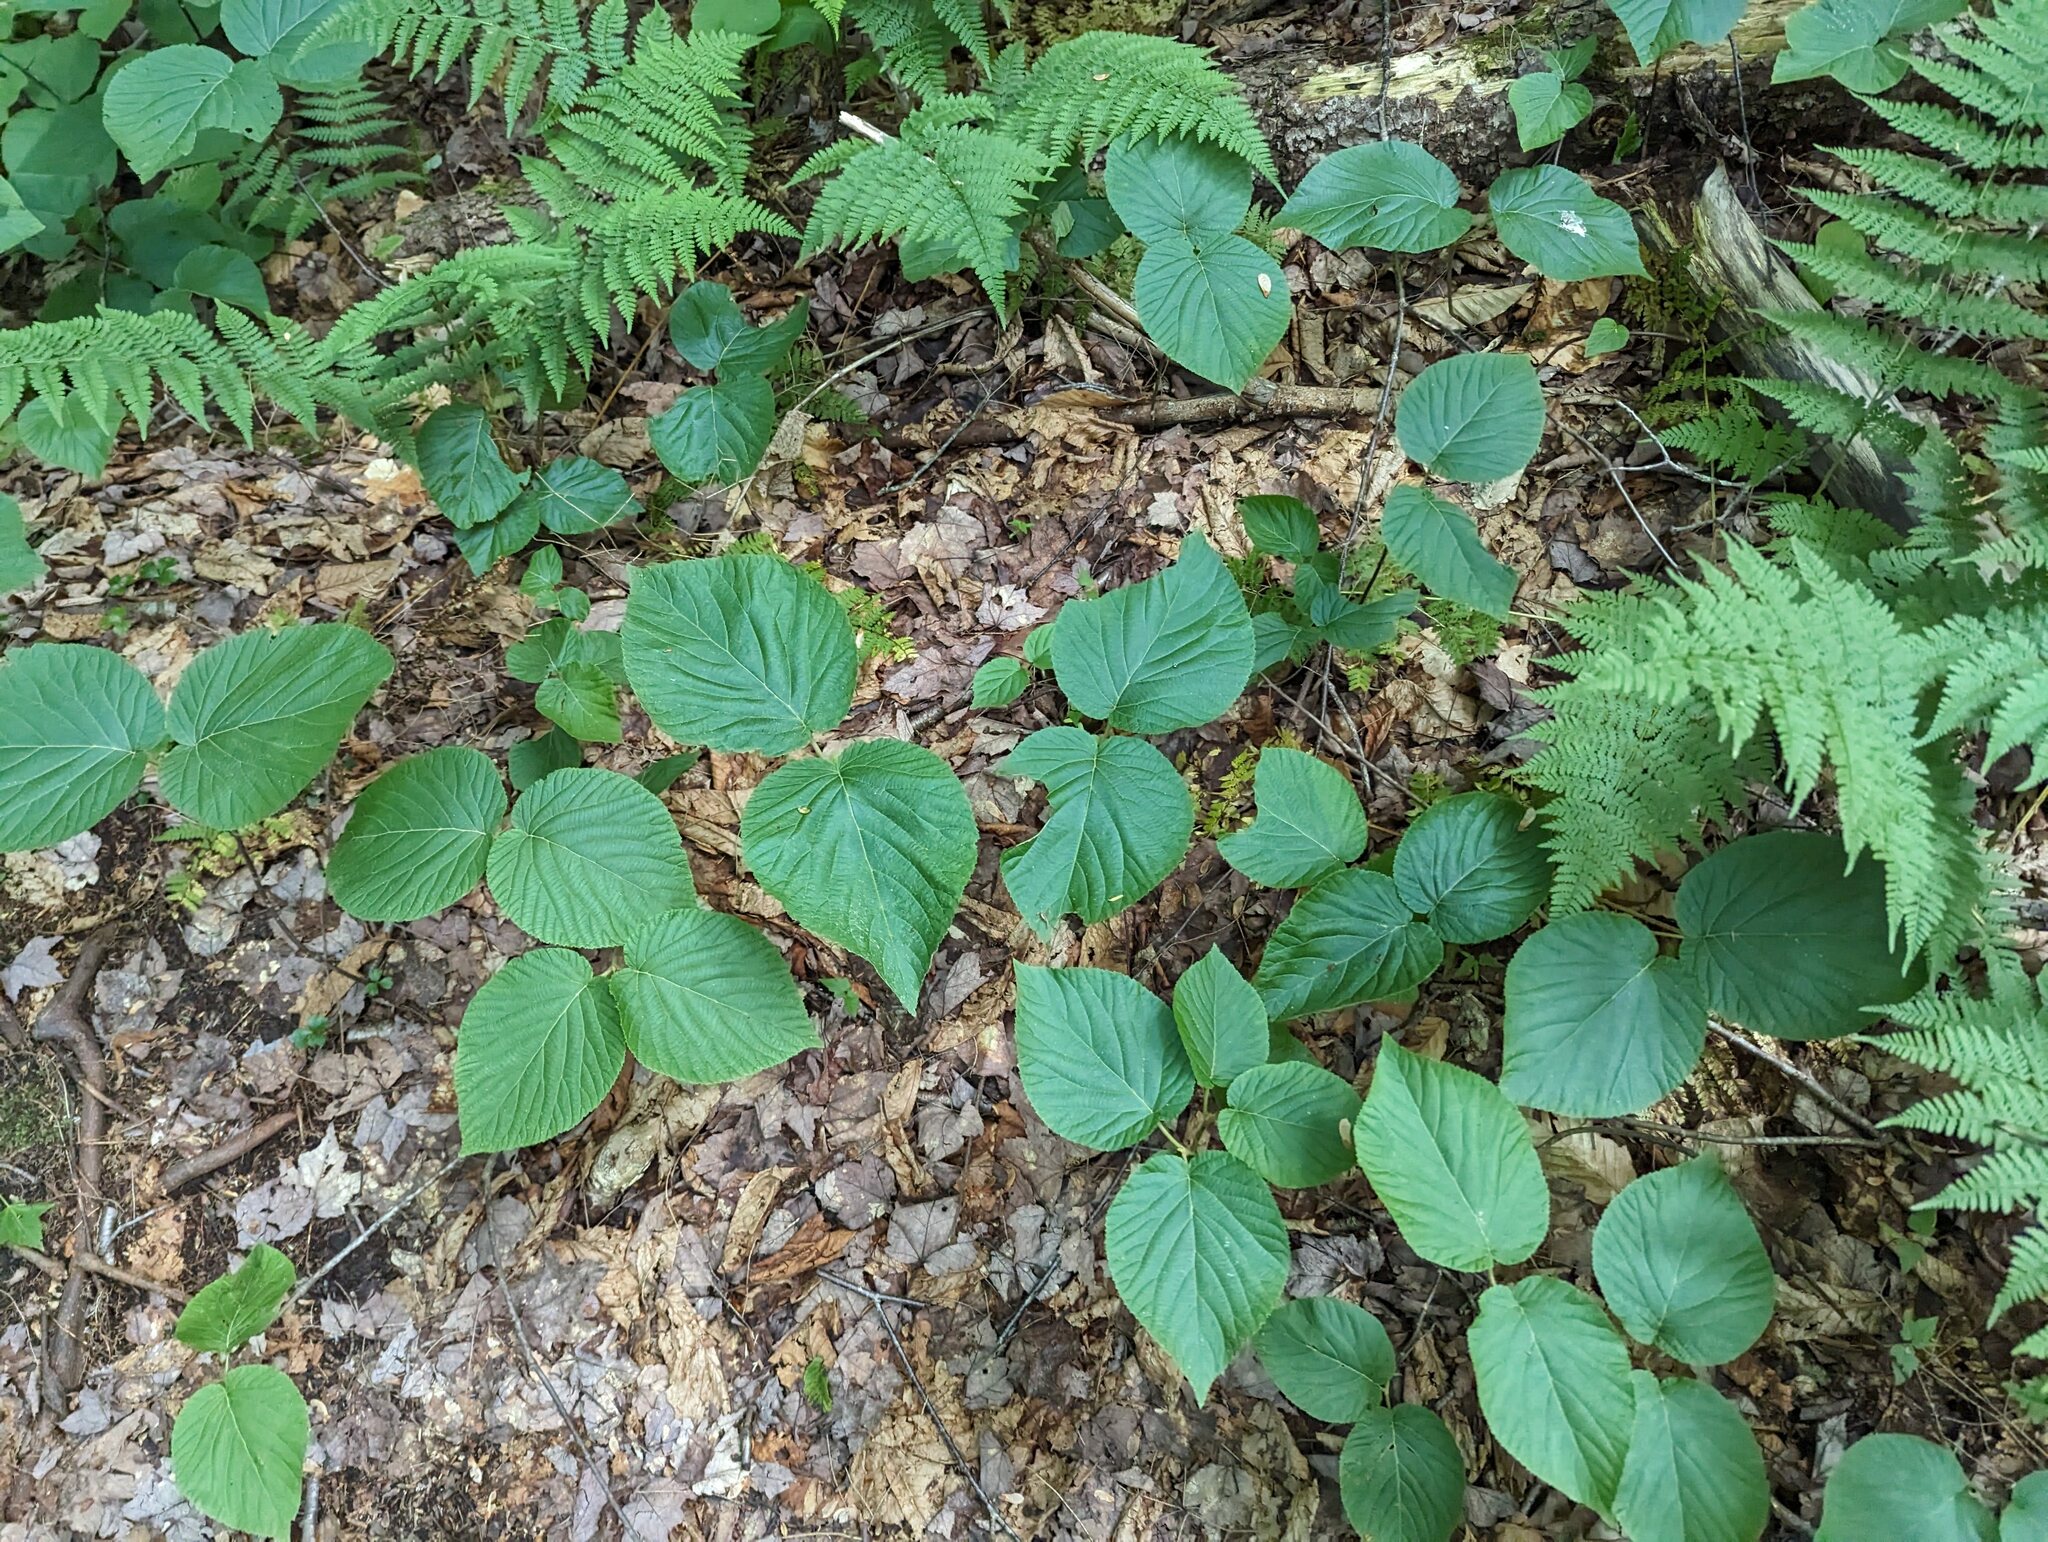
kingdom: Plantae
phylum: Tracheophyta
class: Magnoliopsida
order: Dipsacales
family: Viburnaceae
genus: Viburnum
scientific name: Viburnum lantanoides
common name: Hobblebush
